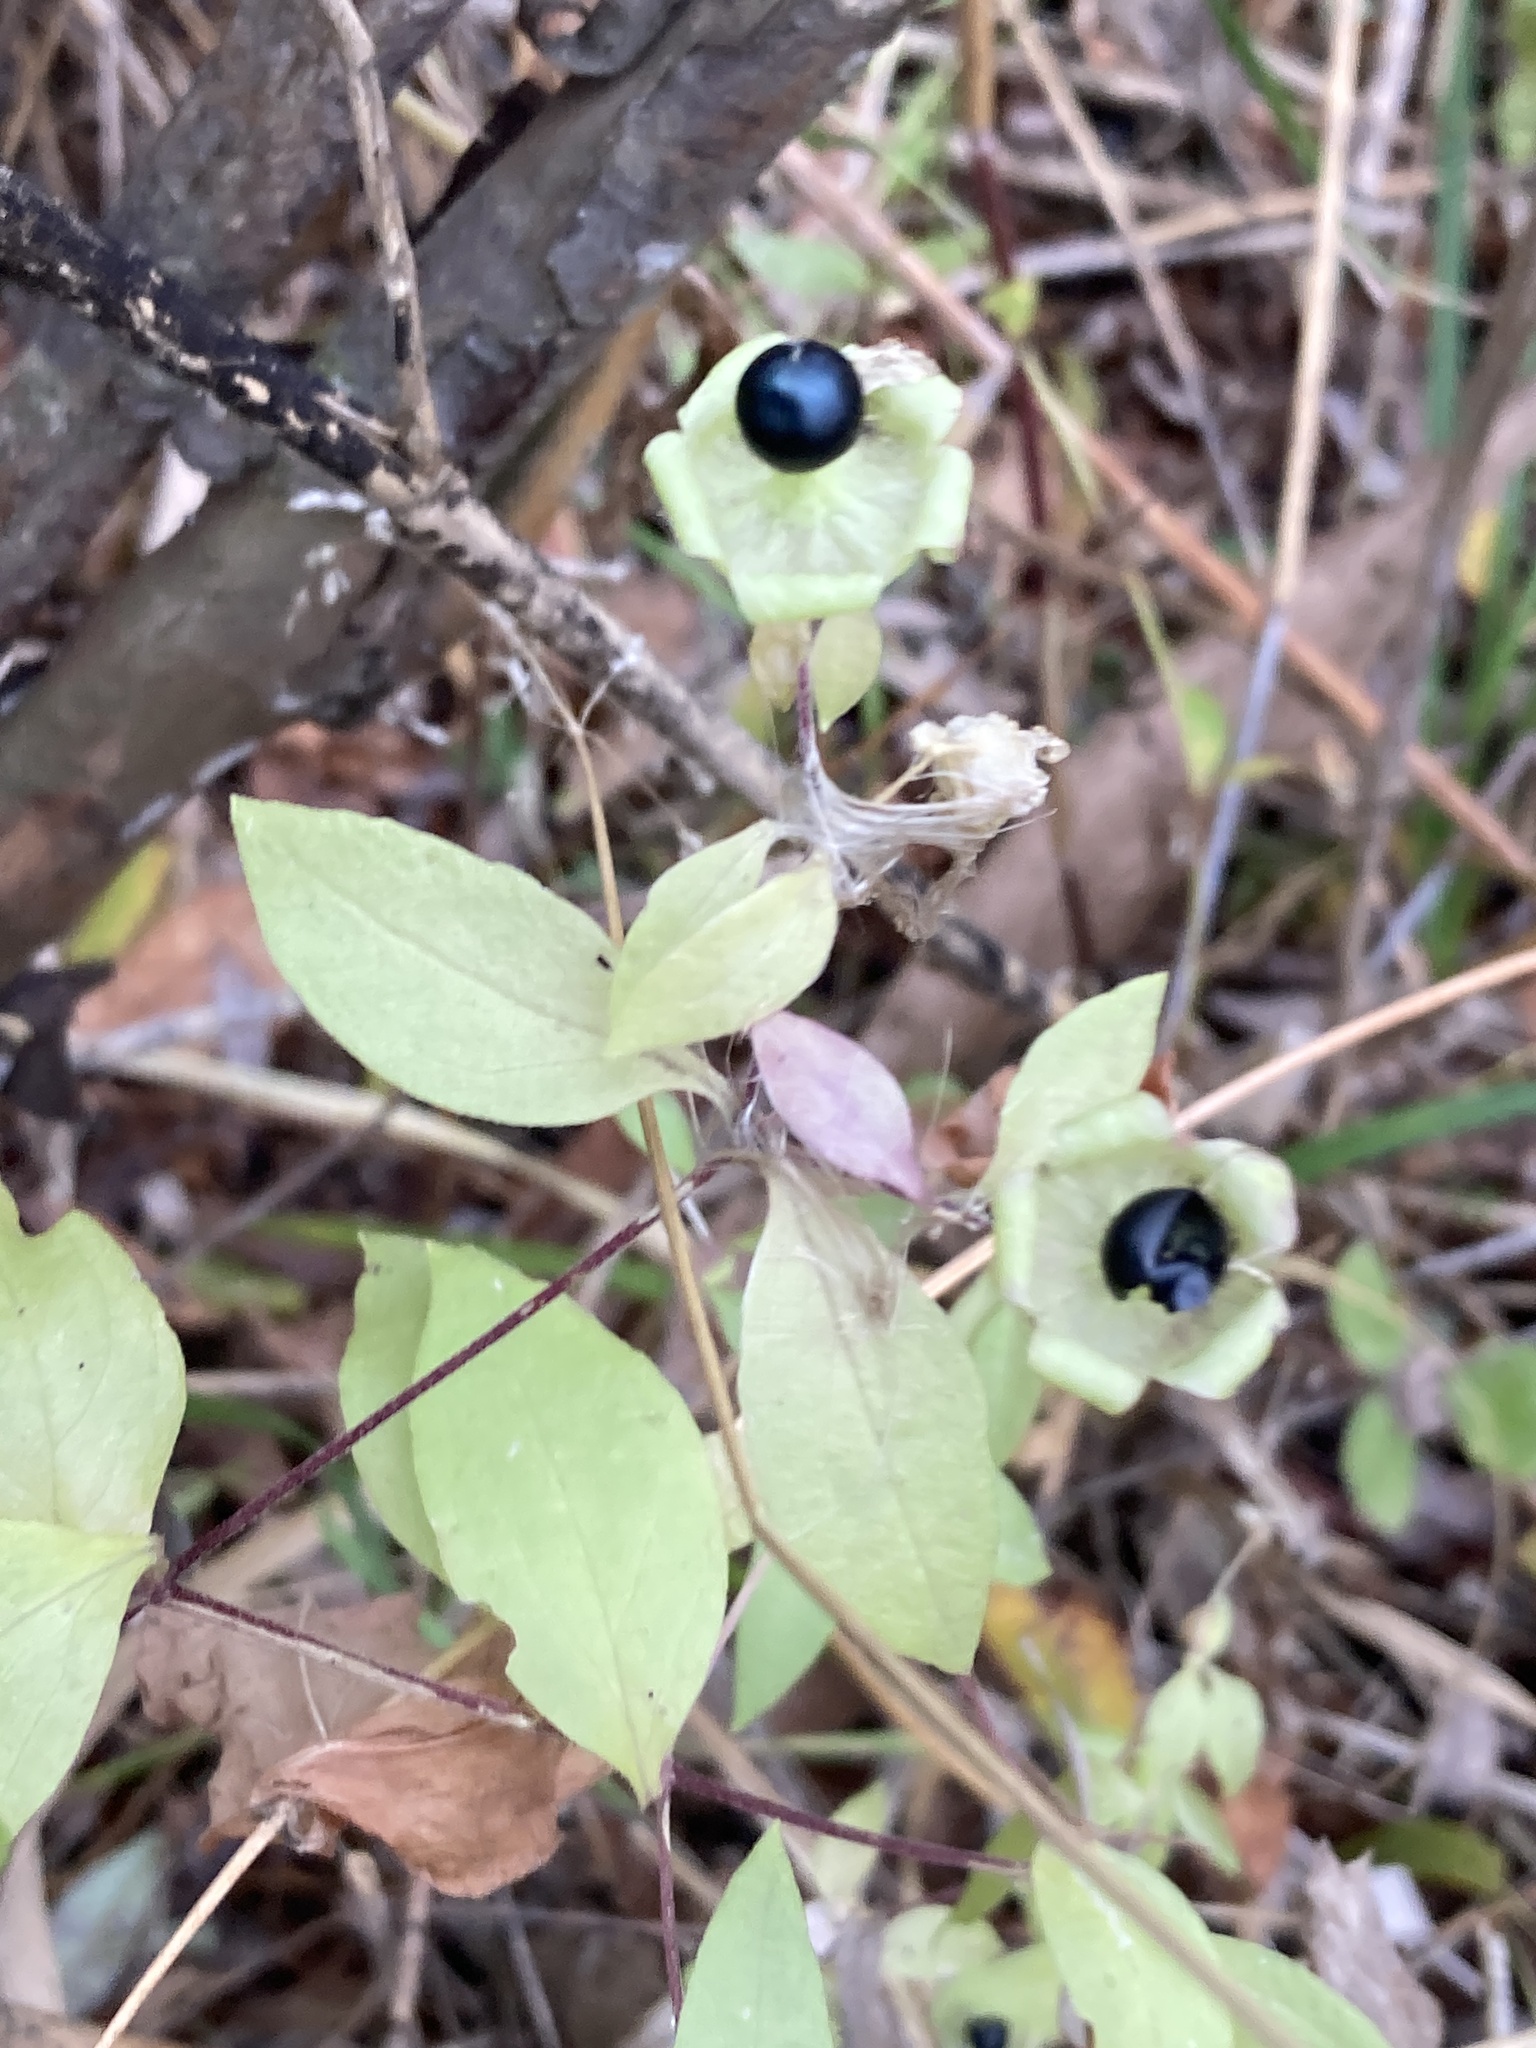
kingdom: Plantae
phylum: Tracheophyta
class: Magnoliopsida
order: Caryophyllales
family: Caryophyllaceae
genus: Silene
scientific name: Silene baccifera
